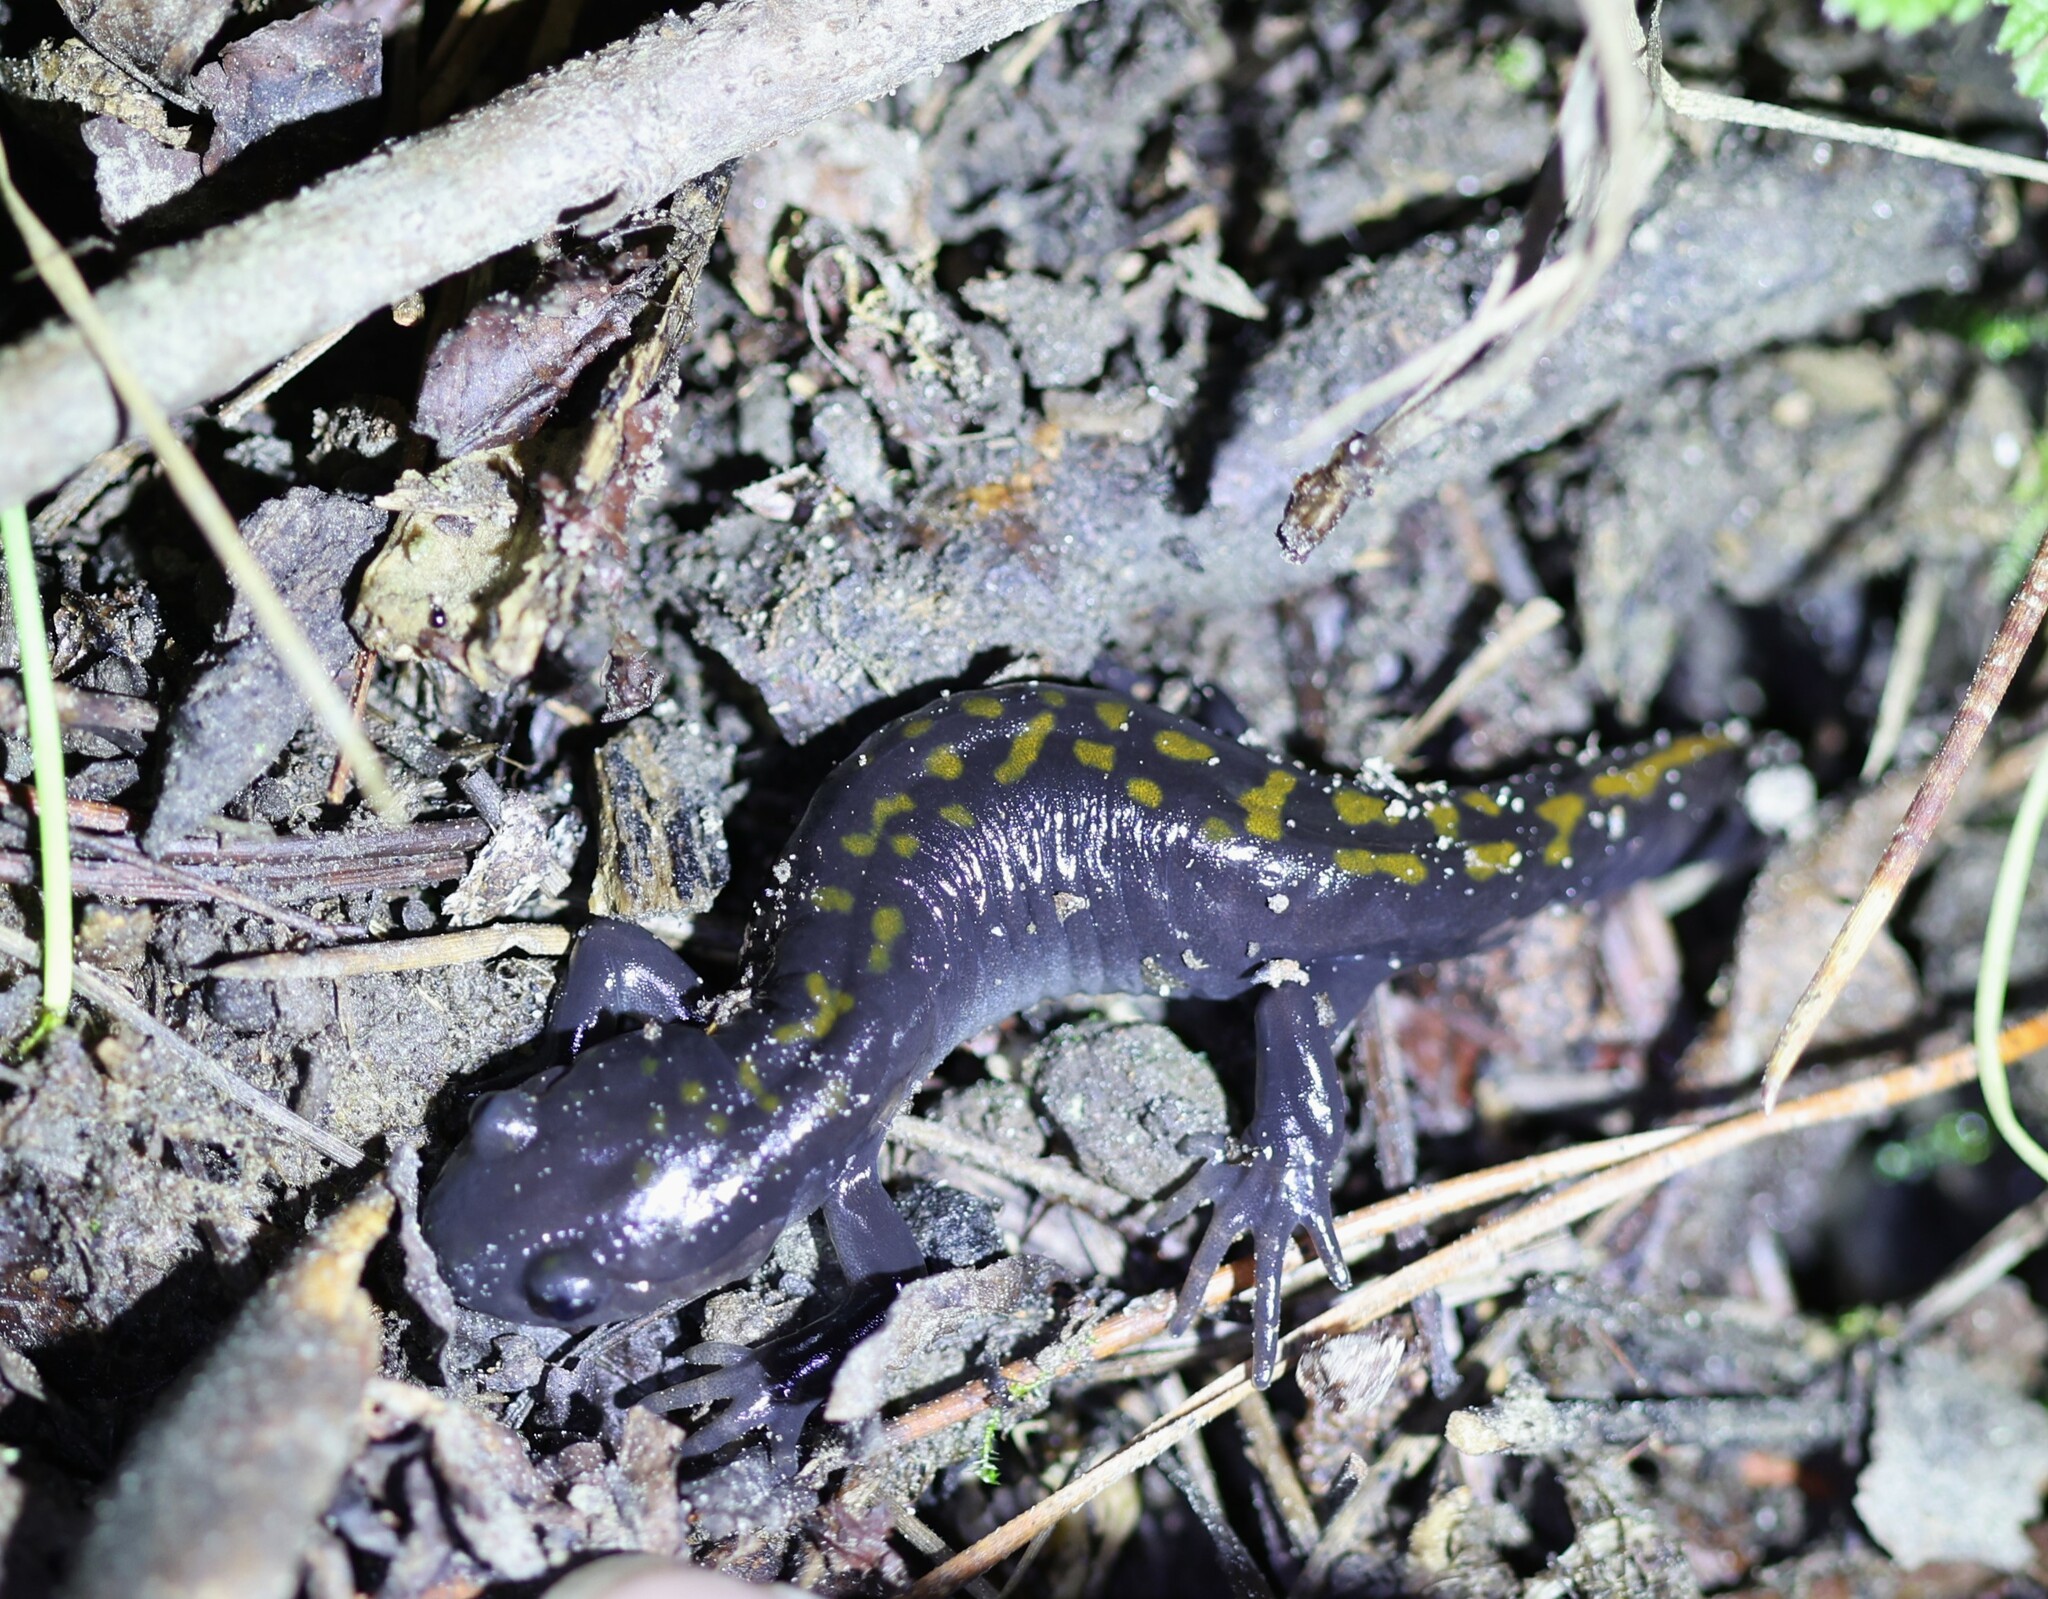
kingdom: Animalia
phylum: Chordata
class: Amphibia
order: Caudata
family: Ambystomatidae
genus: Ambystoma
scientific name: Ambystoma macrodactylum
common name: Long-toed salamander
